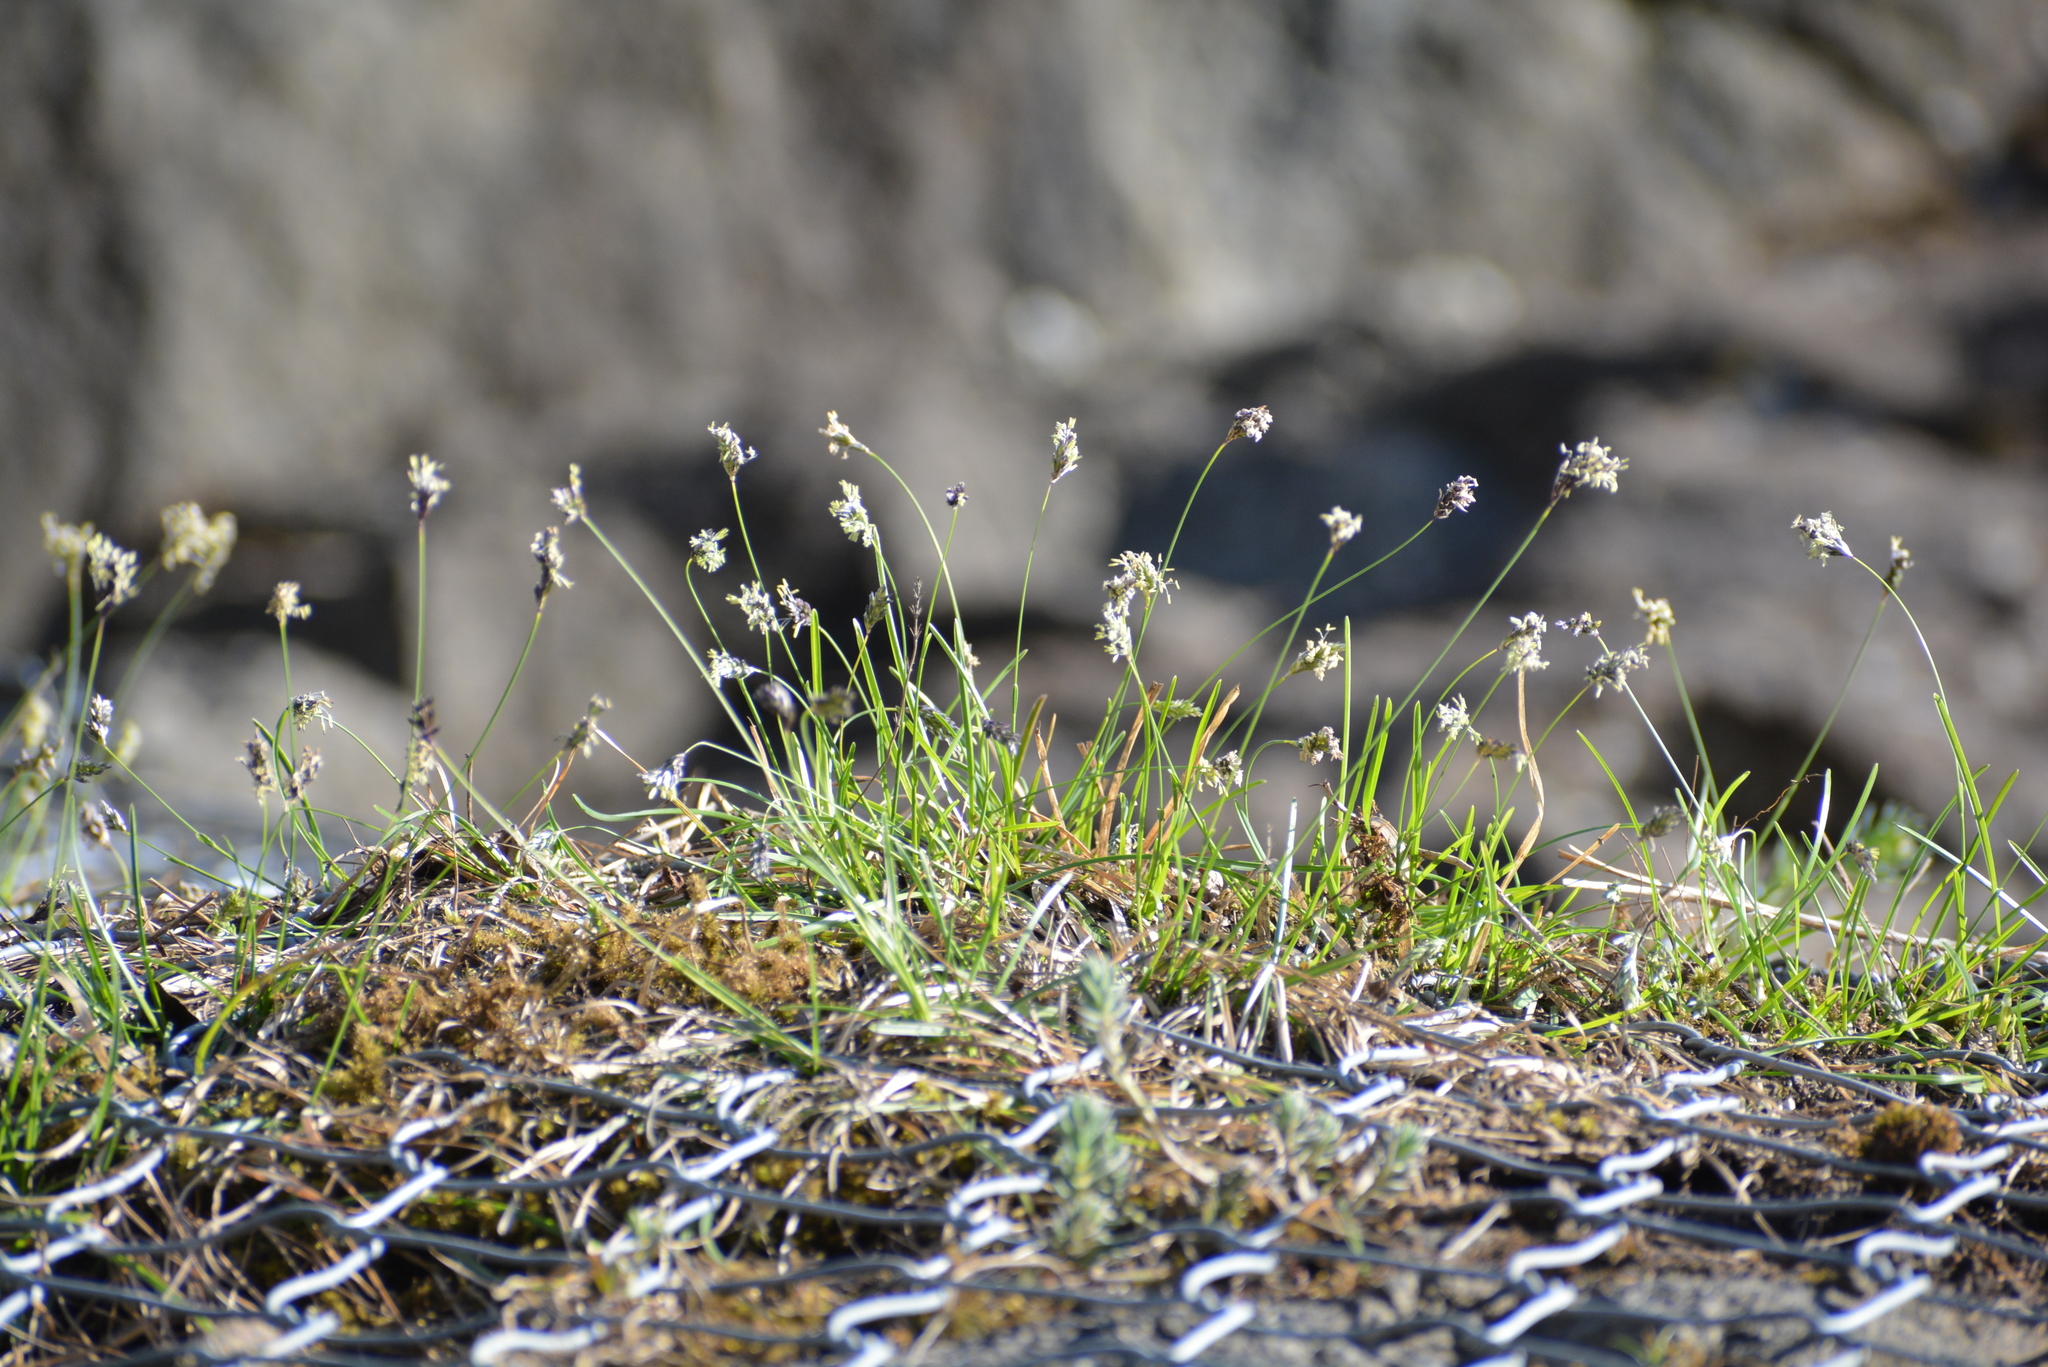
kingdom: Plantae
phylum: Tracheophyta
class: Liliopsida
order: Poales
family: Poaceae
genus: Sesleria
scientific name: Sesleria caerulea
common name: Blue moor-grass
